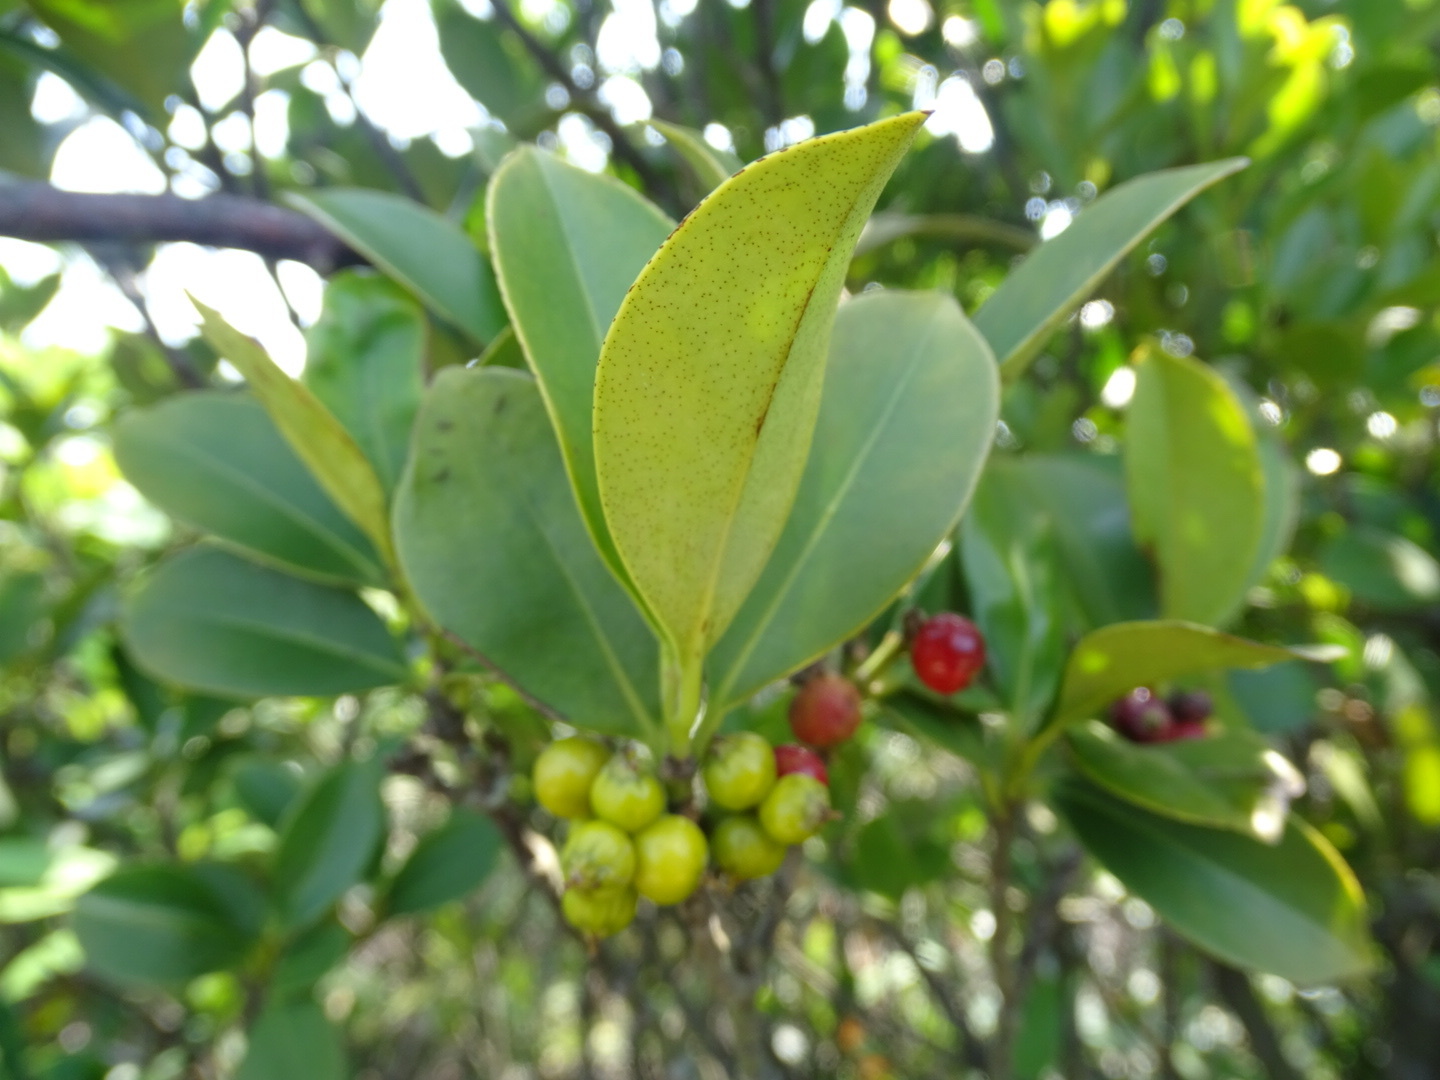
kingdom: Plantae
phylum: Tracheophyta
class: Magnoliopsida
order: Malpighiales
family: Rhizophoraceae
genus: Carallia
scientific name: Carallia brachiata
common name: Carallawood
